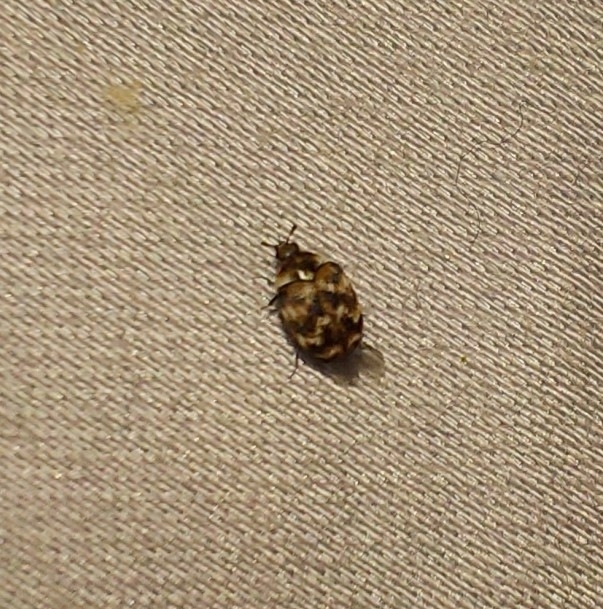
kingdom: Animalia
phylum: Arthropoda
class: Insecta
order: Coleoptera
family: Dermestidae
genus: Anthrenus
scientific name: Anthrenus verbasci
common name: Varied carpet beetle
